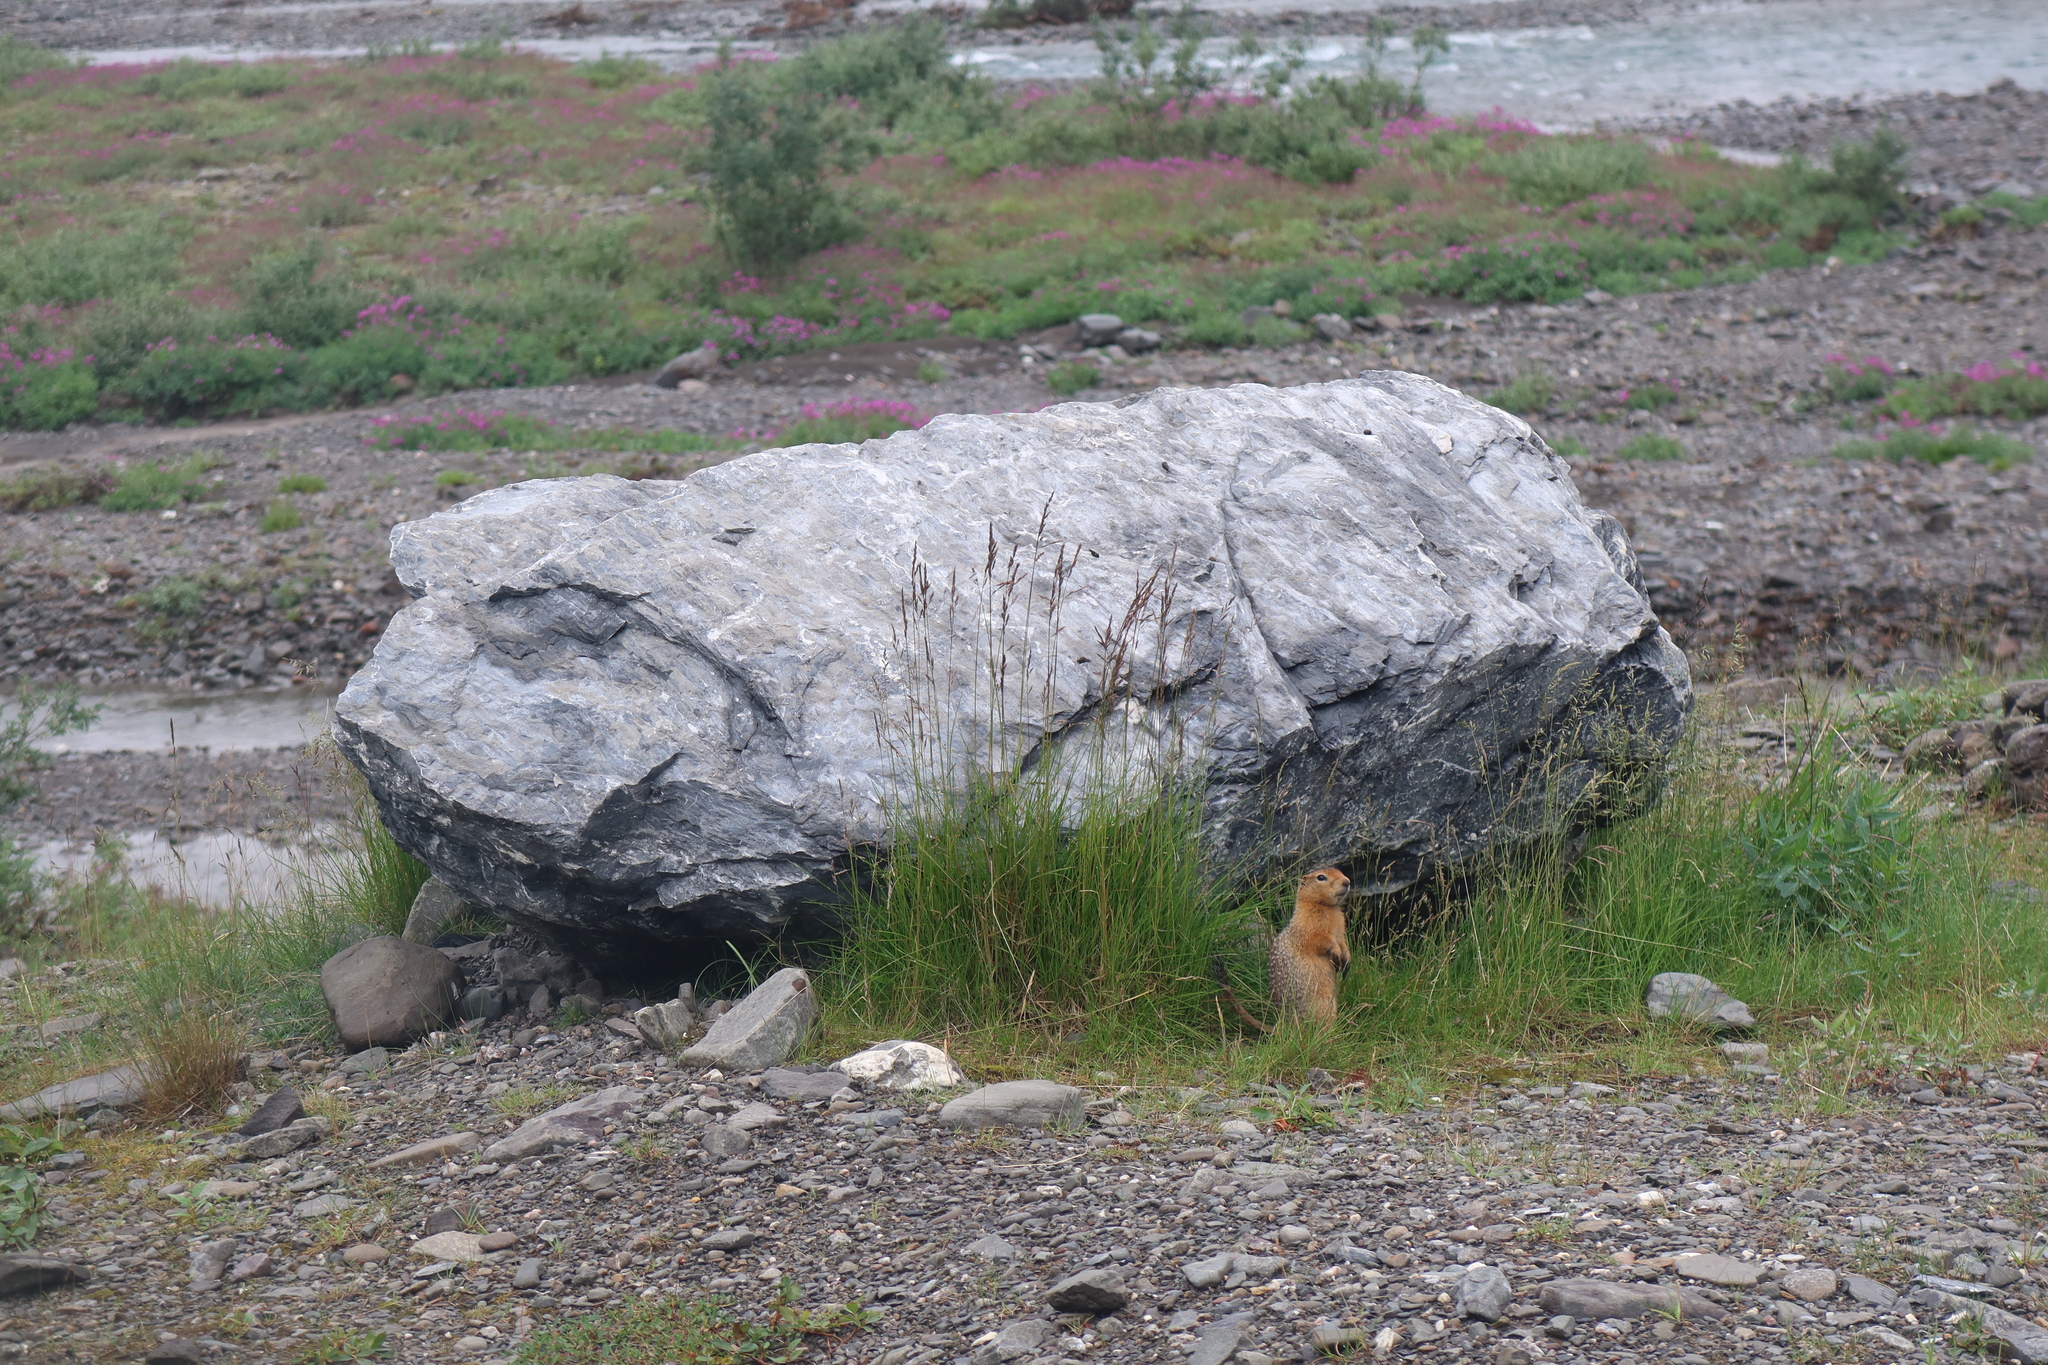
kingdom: Animalia
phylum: Chordata
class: Mammalia
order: Rodentia
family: Sciuridae
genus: Urocitellus
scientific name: Urocitellus parryii
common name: Arctic ground squirrel
